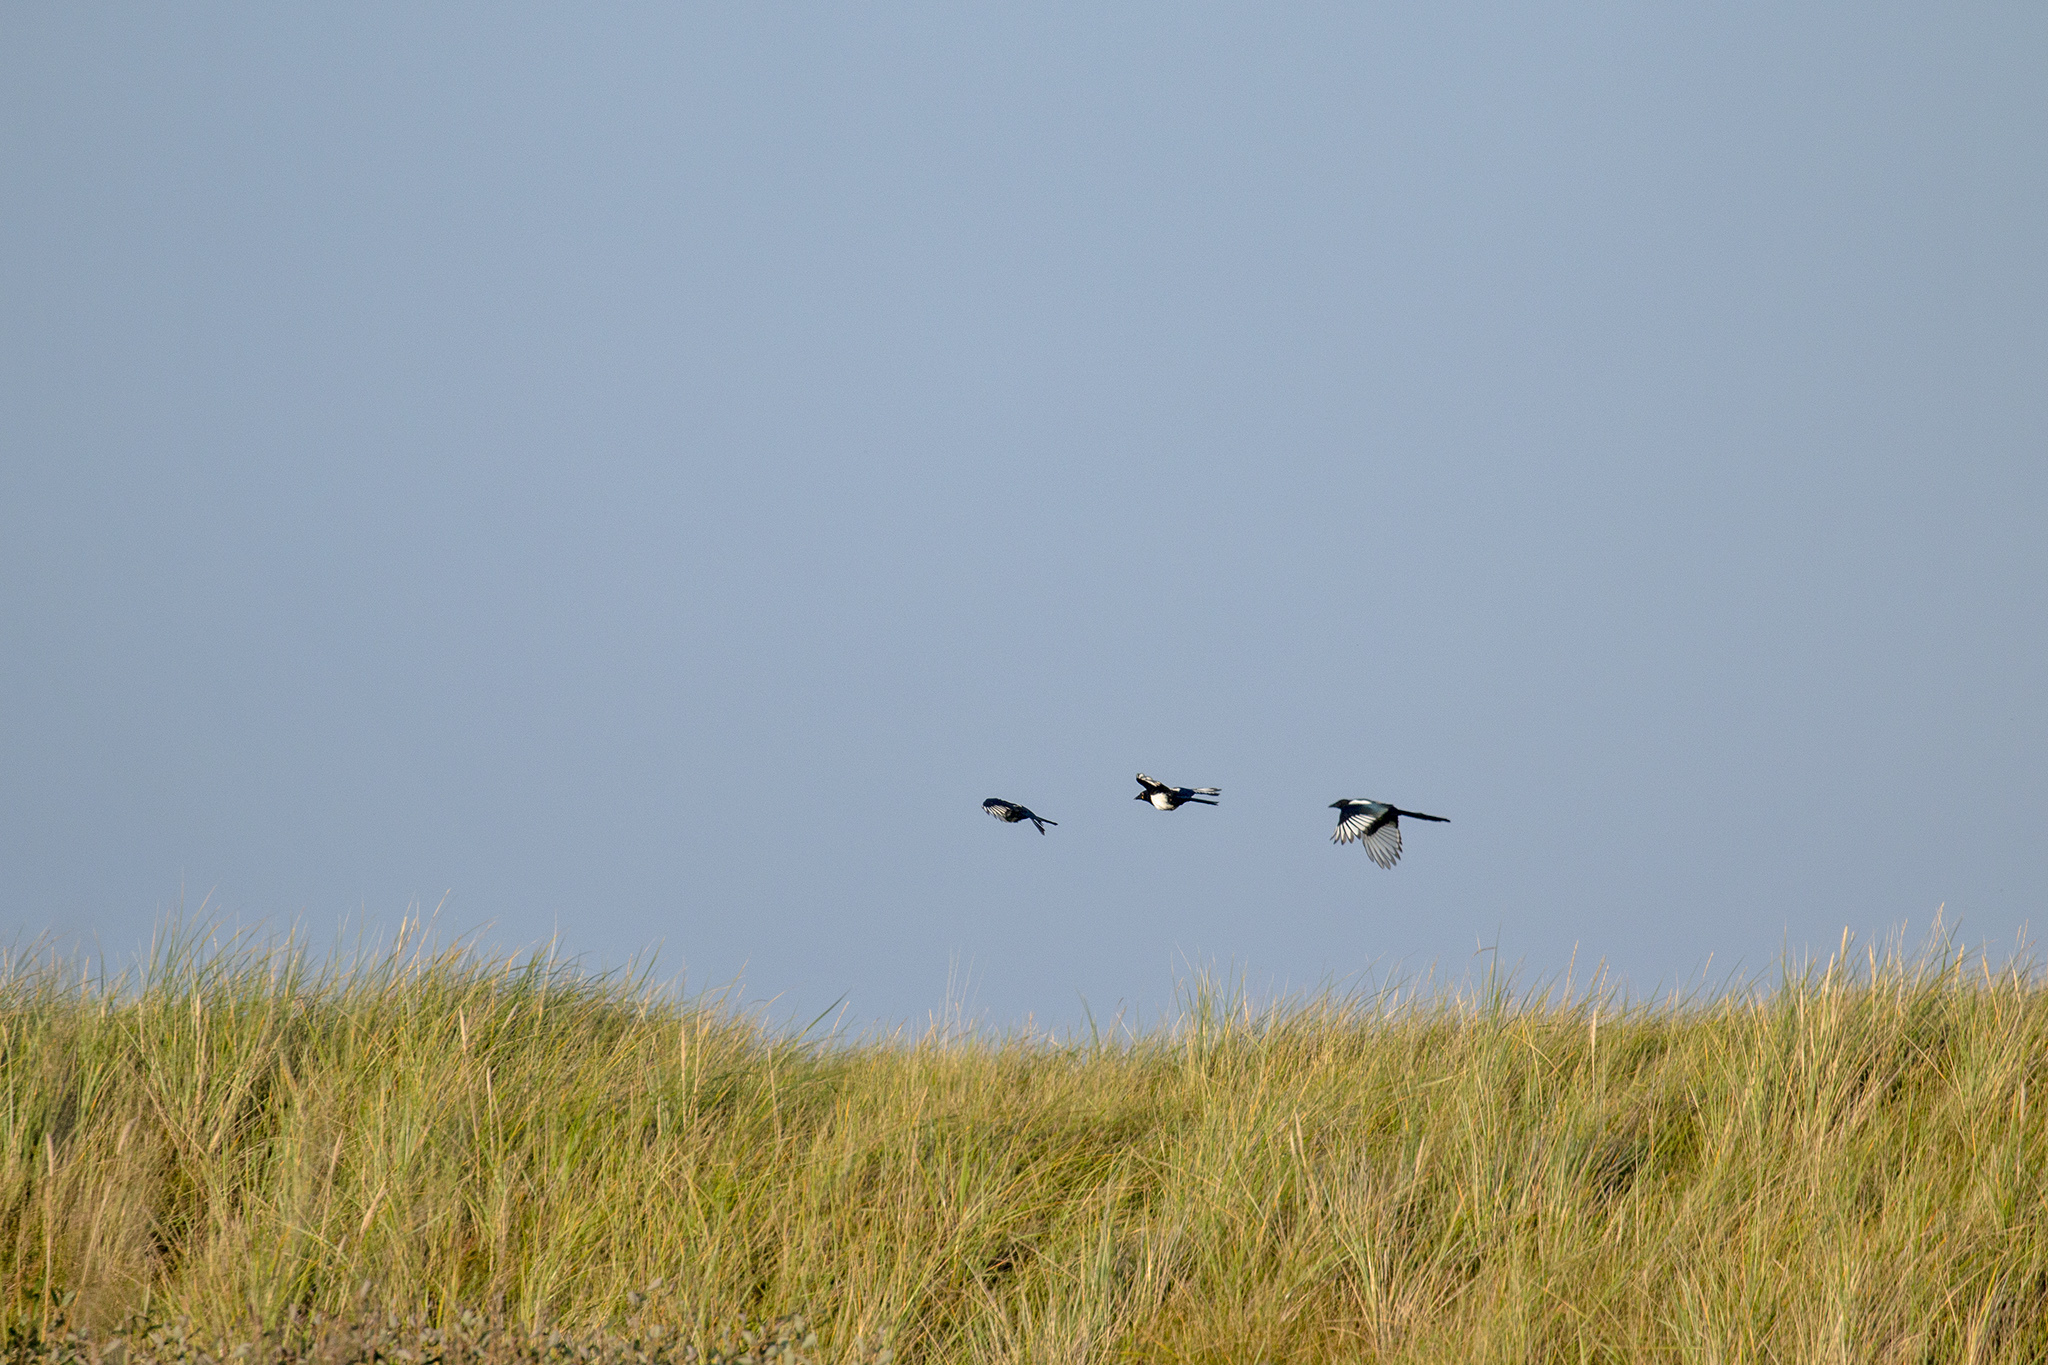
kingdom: Animalia
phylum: Chordata
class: Aves
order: Passeriformes
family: Corvidae
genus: Pica
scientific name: Pica pica
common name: Eurasian magpie
